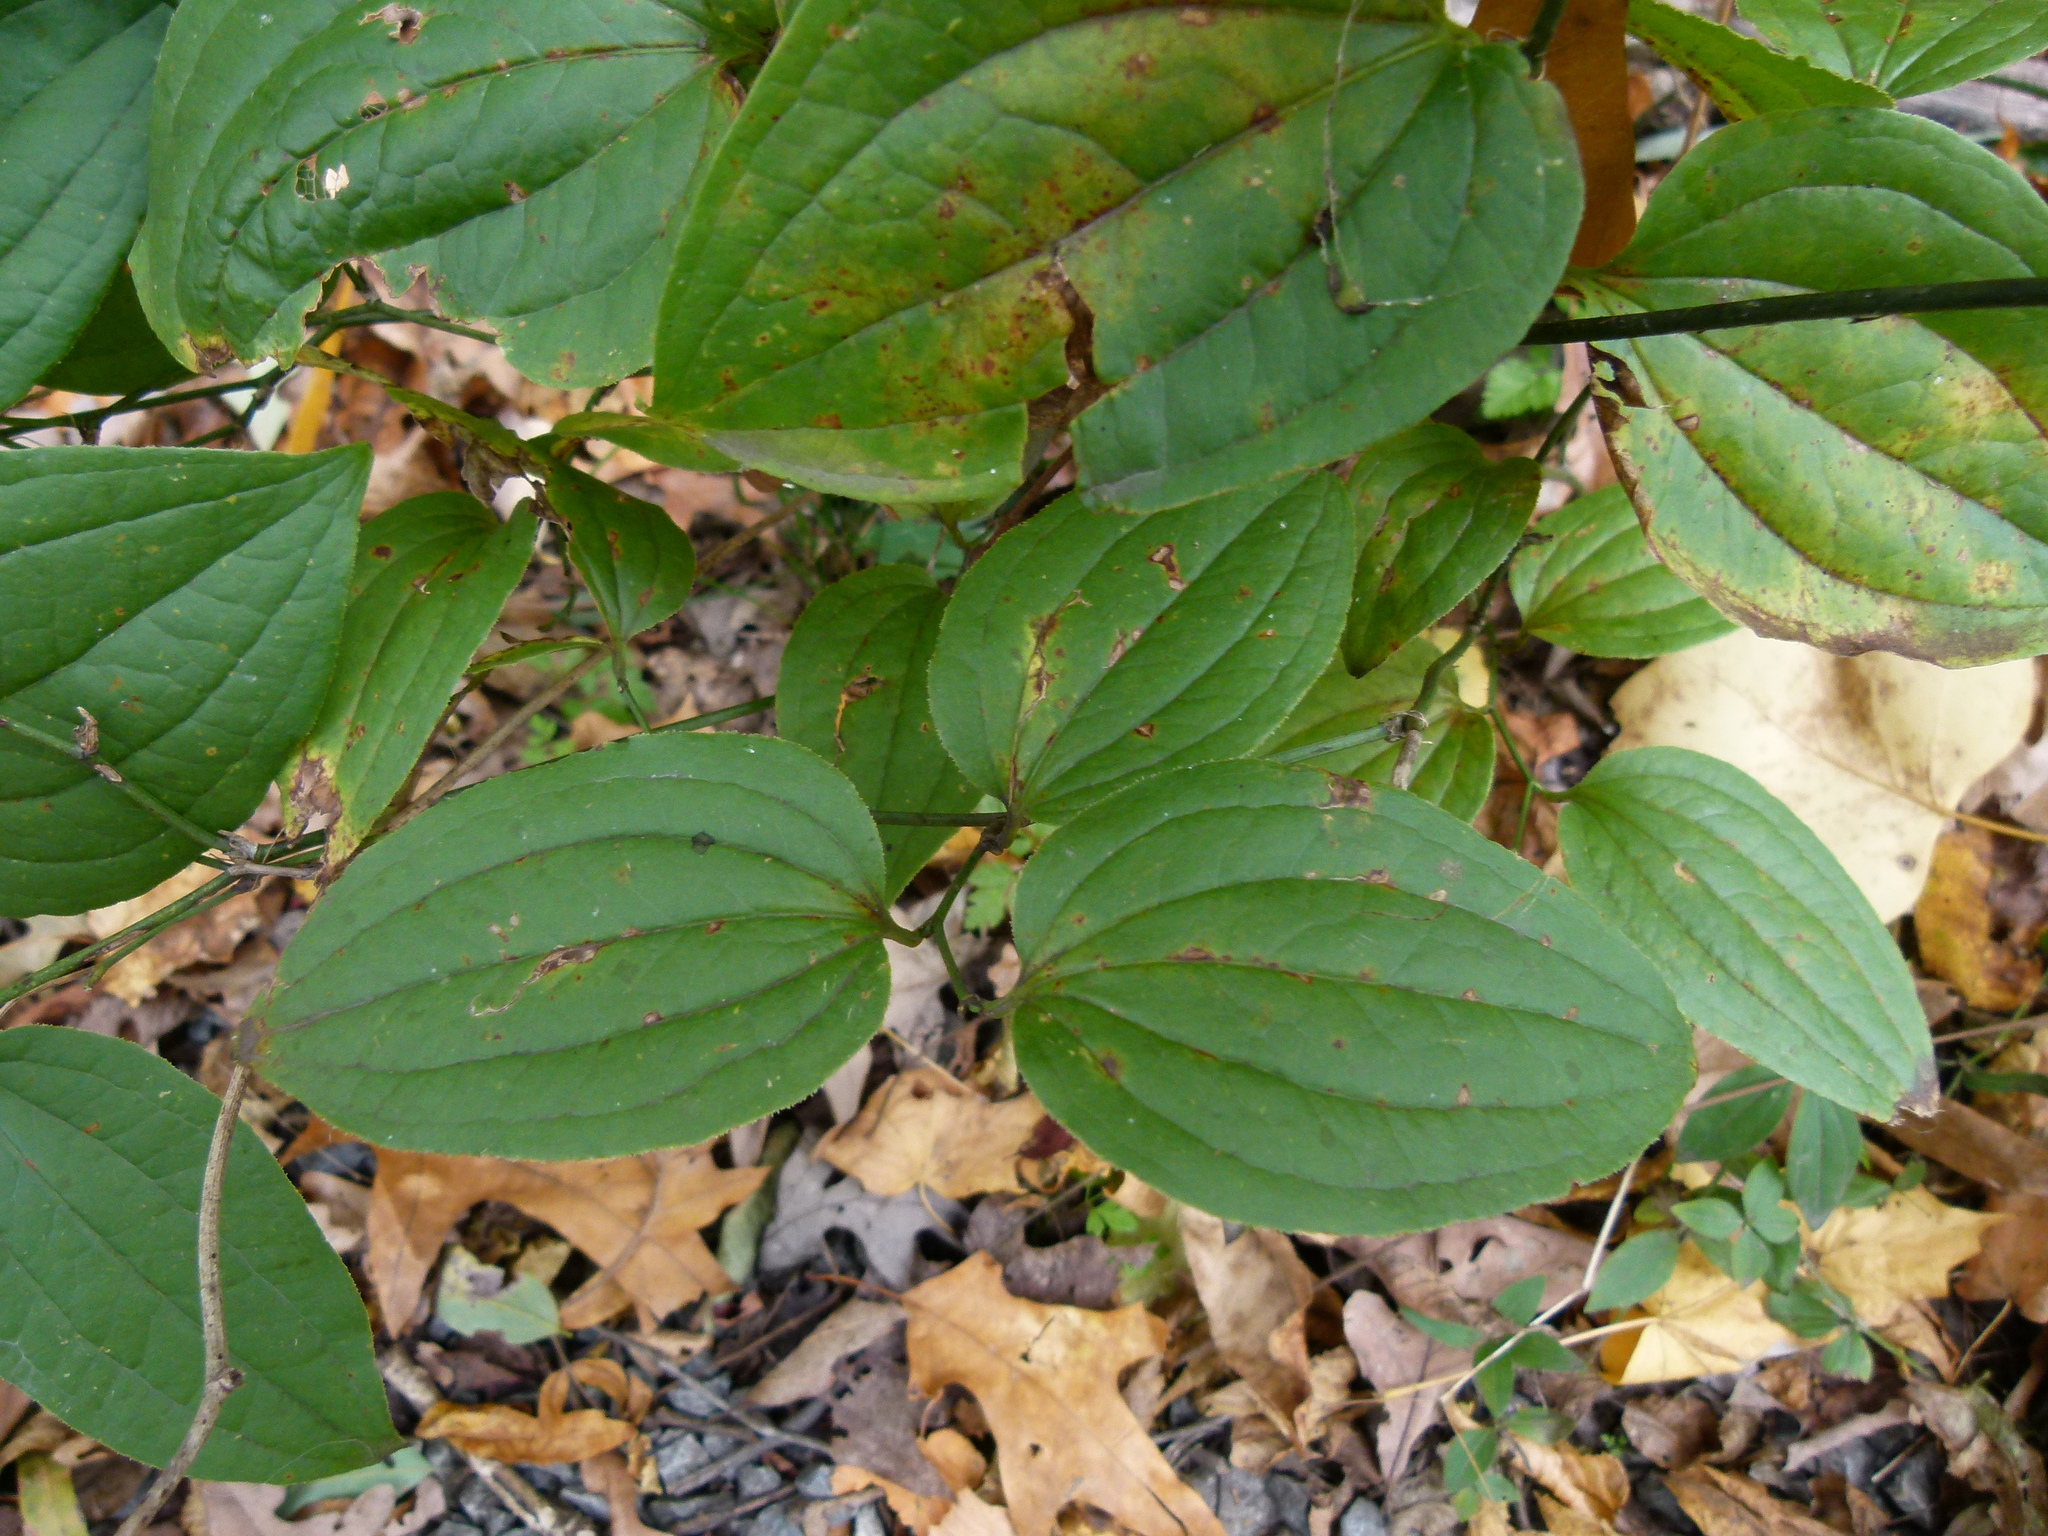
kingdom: Plantae
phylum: Tracheophyta
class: Liliopsida
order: Liliales
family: Smilacaceae
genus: Smilax
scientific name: Smilax tamnoides
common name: Hellfetter
